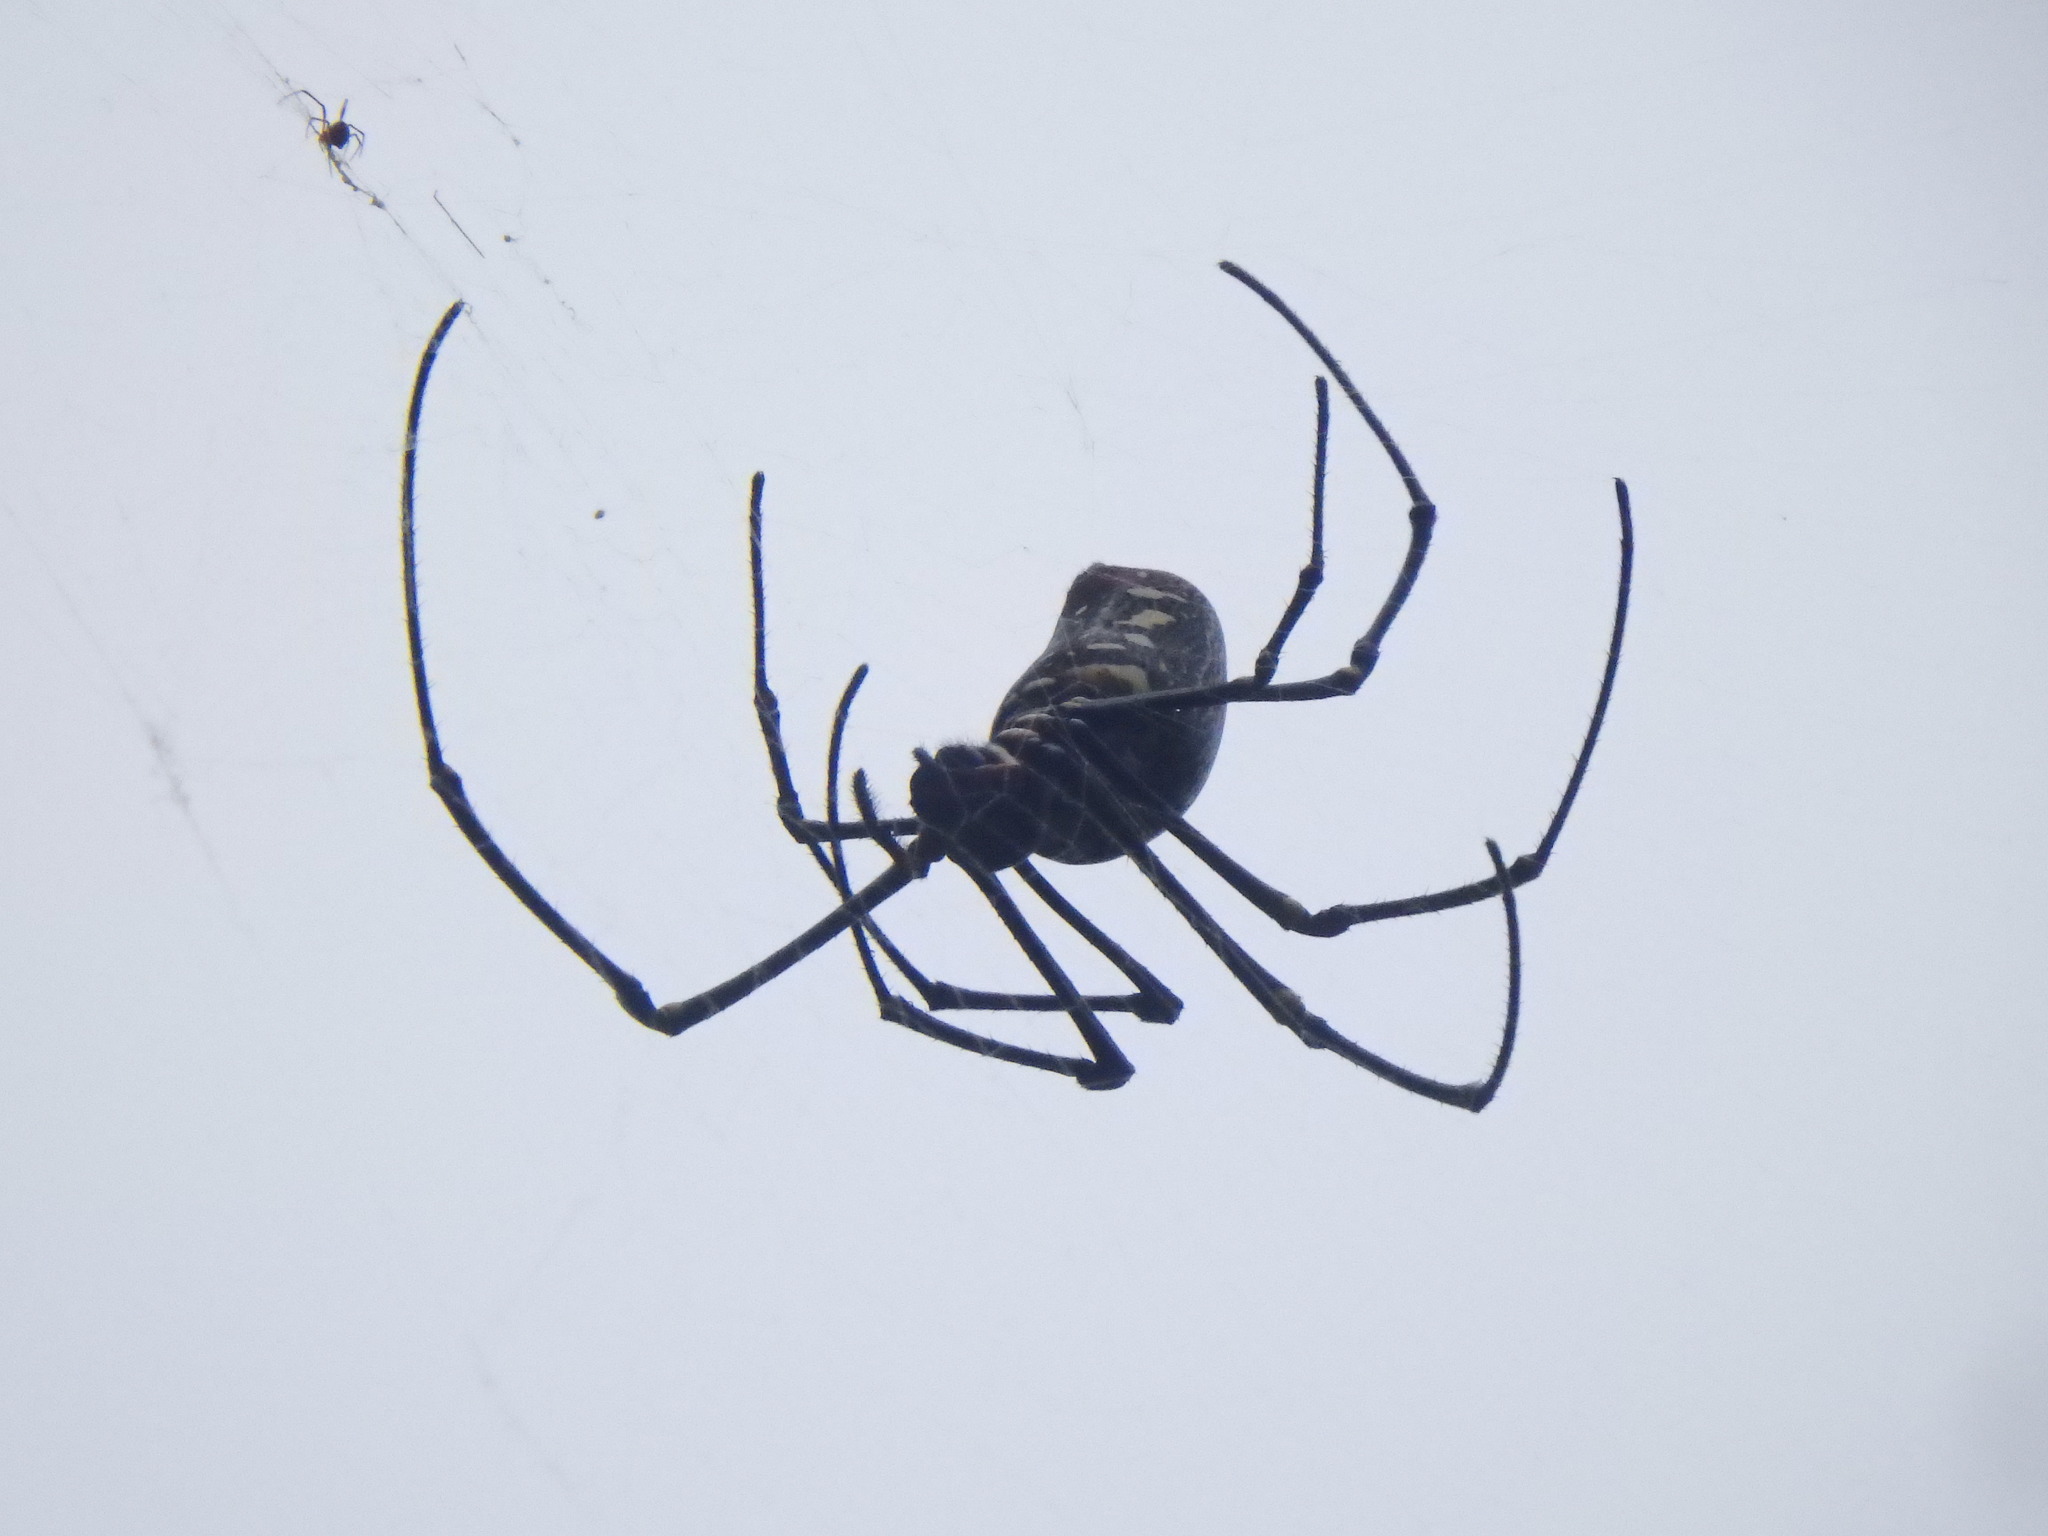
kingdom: Animalia
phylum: Arthropoda
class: Arachnida
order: Araneae
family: Araneidae
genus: Nephila
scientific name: Nephila pilipes
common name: Giant golden orb weaver
